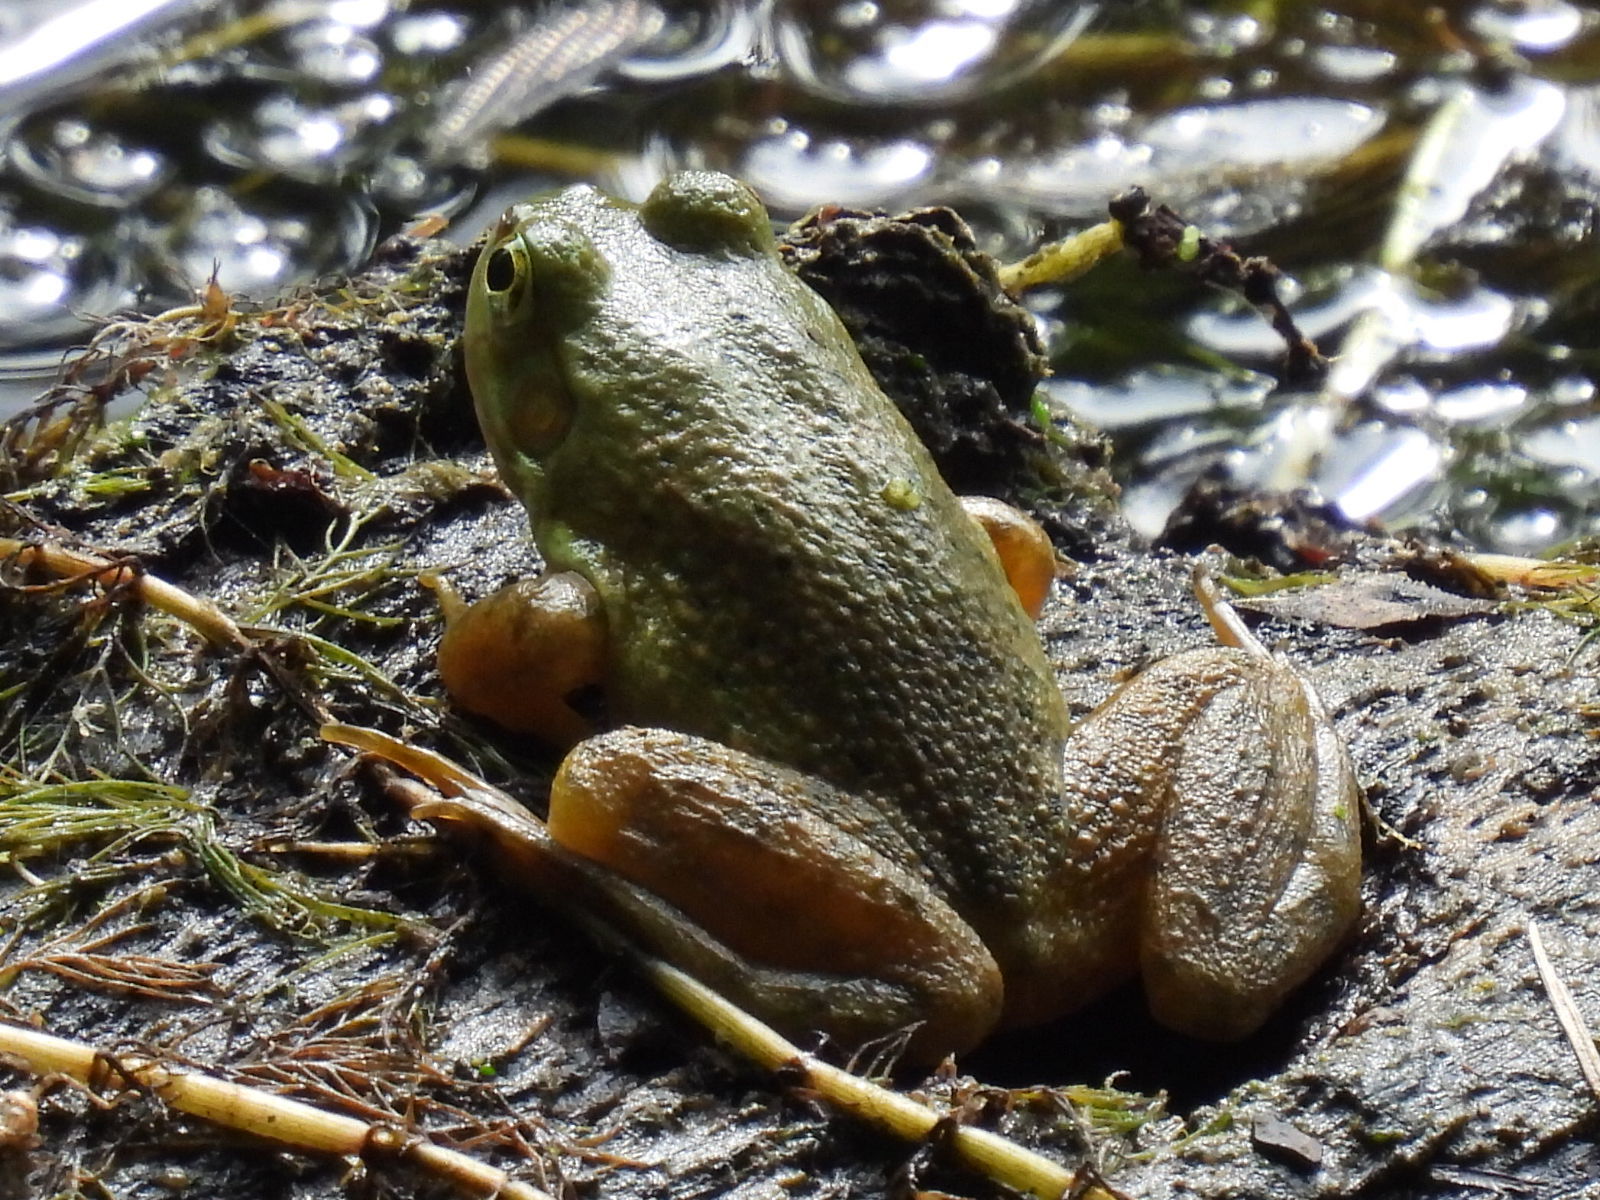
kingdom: Animalia
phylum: Chordata
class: Amphibia
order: Anura
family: Ranidae
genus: Lithobates
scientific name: Lithobates catesbeianus
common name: American bullfrog
